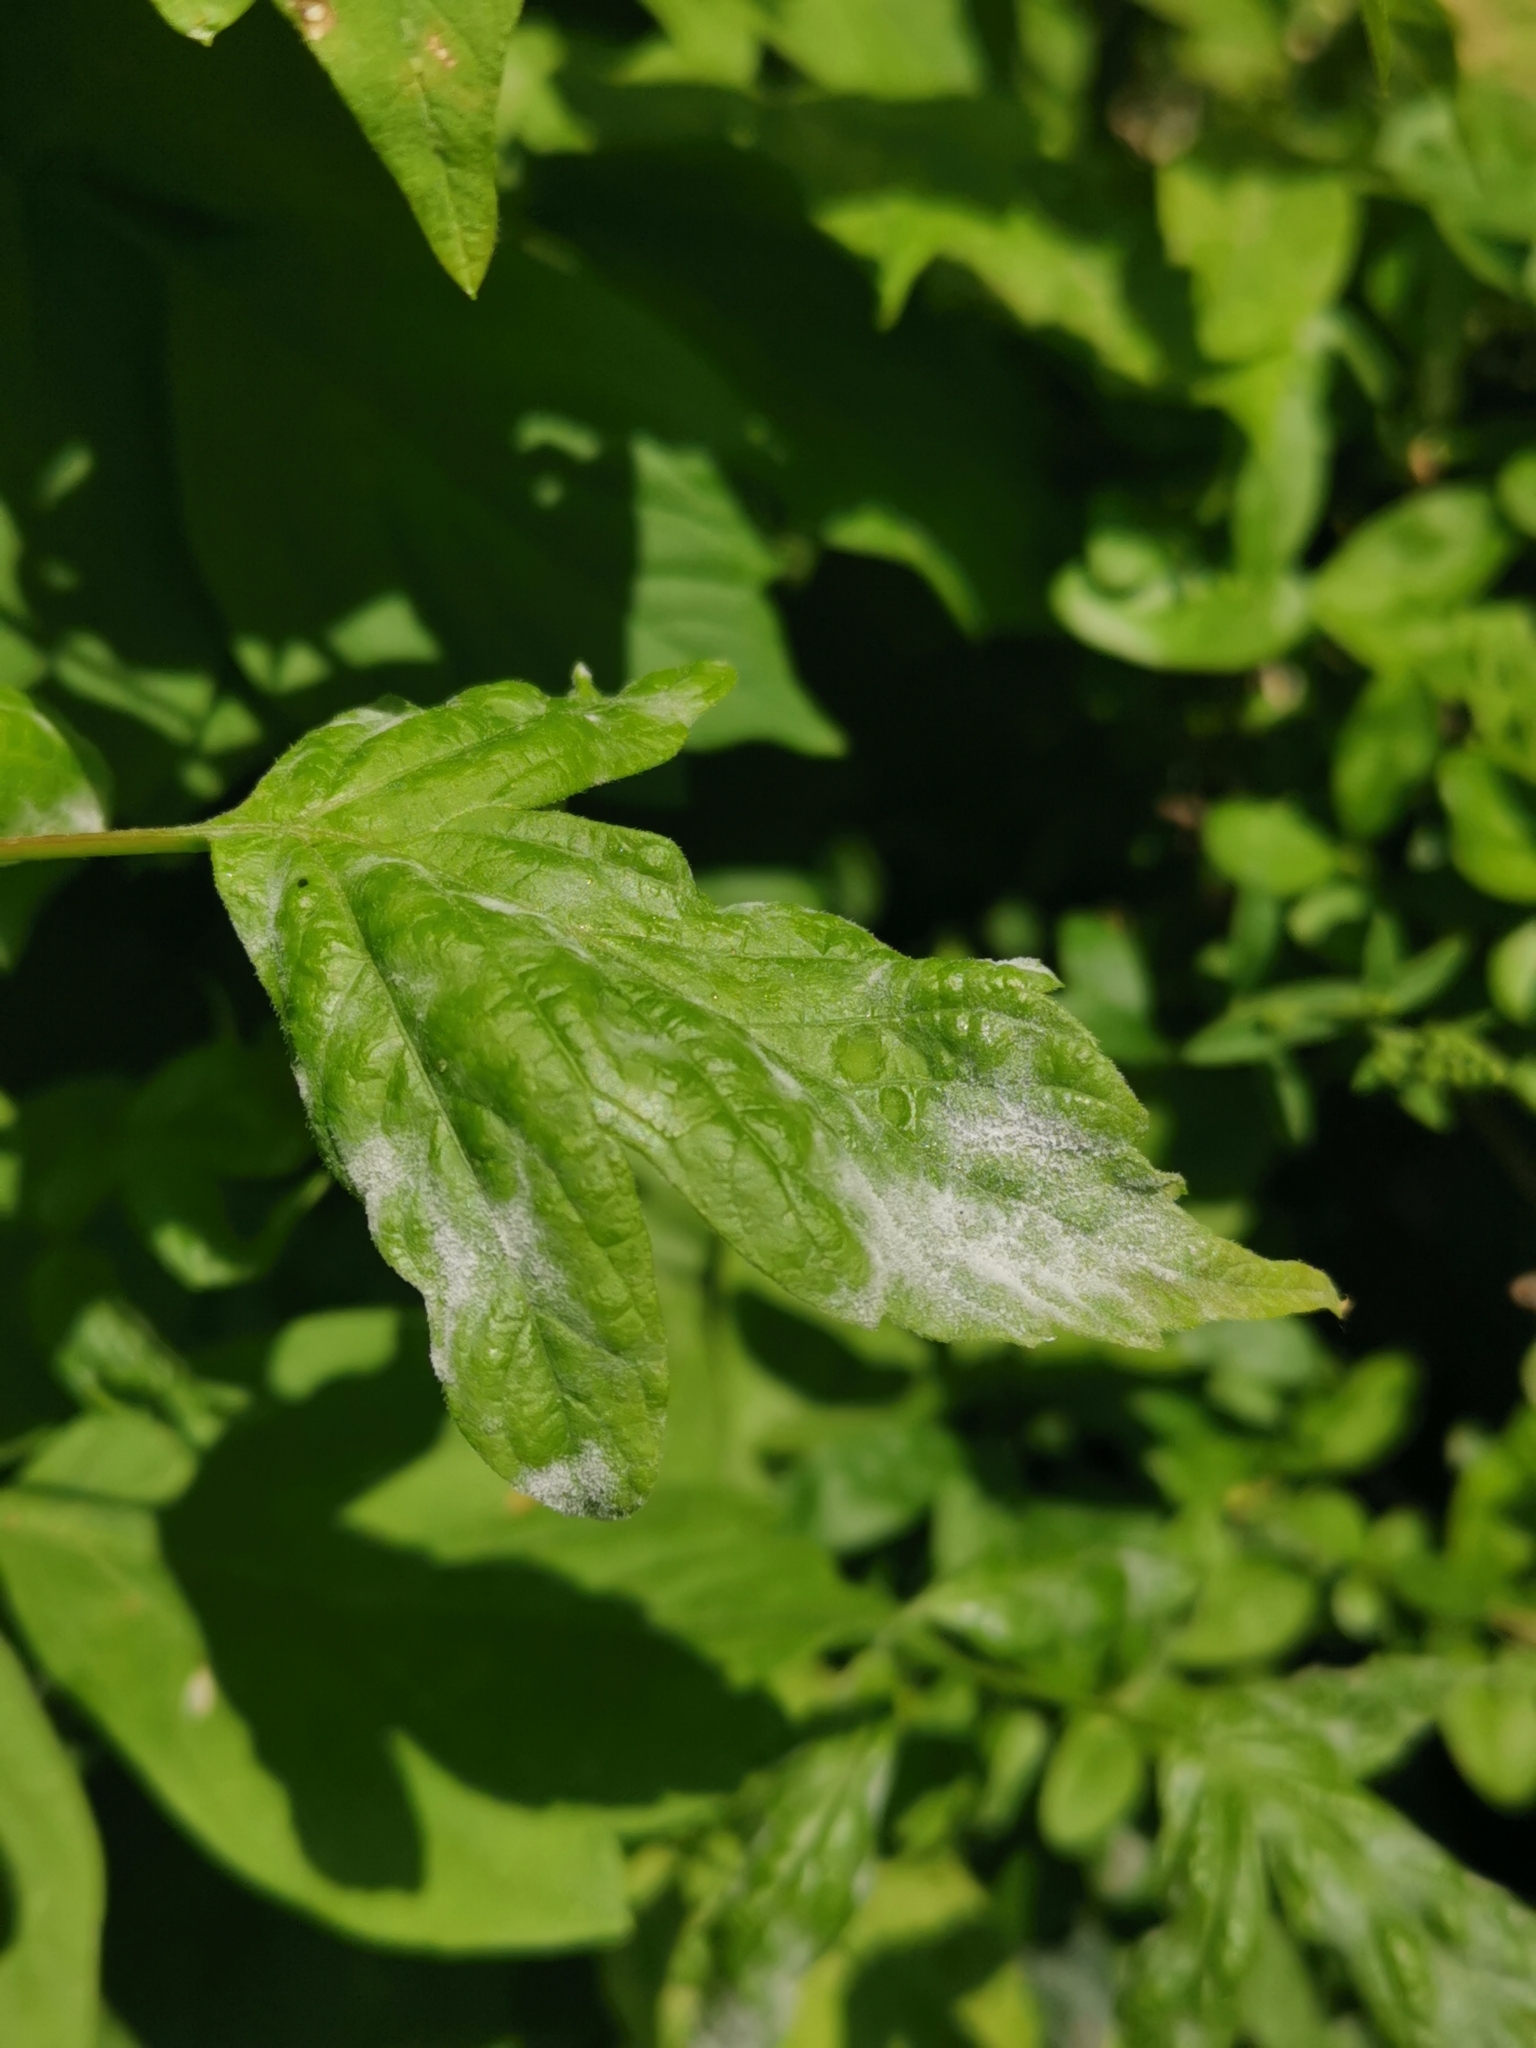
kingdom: Fungi
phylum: Ascomycota
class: Leotiomycetes
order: Helotiales
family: Erysiphaceae
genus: Sawadaea
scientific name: Sawadaea bicornis
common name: Maple mildew
